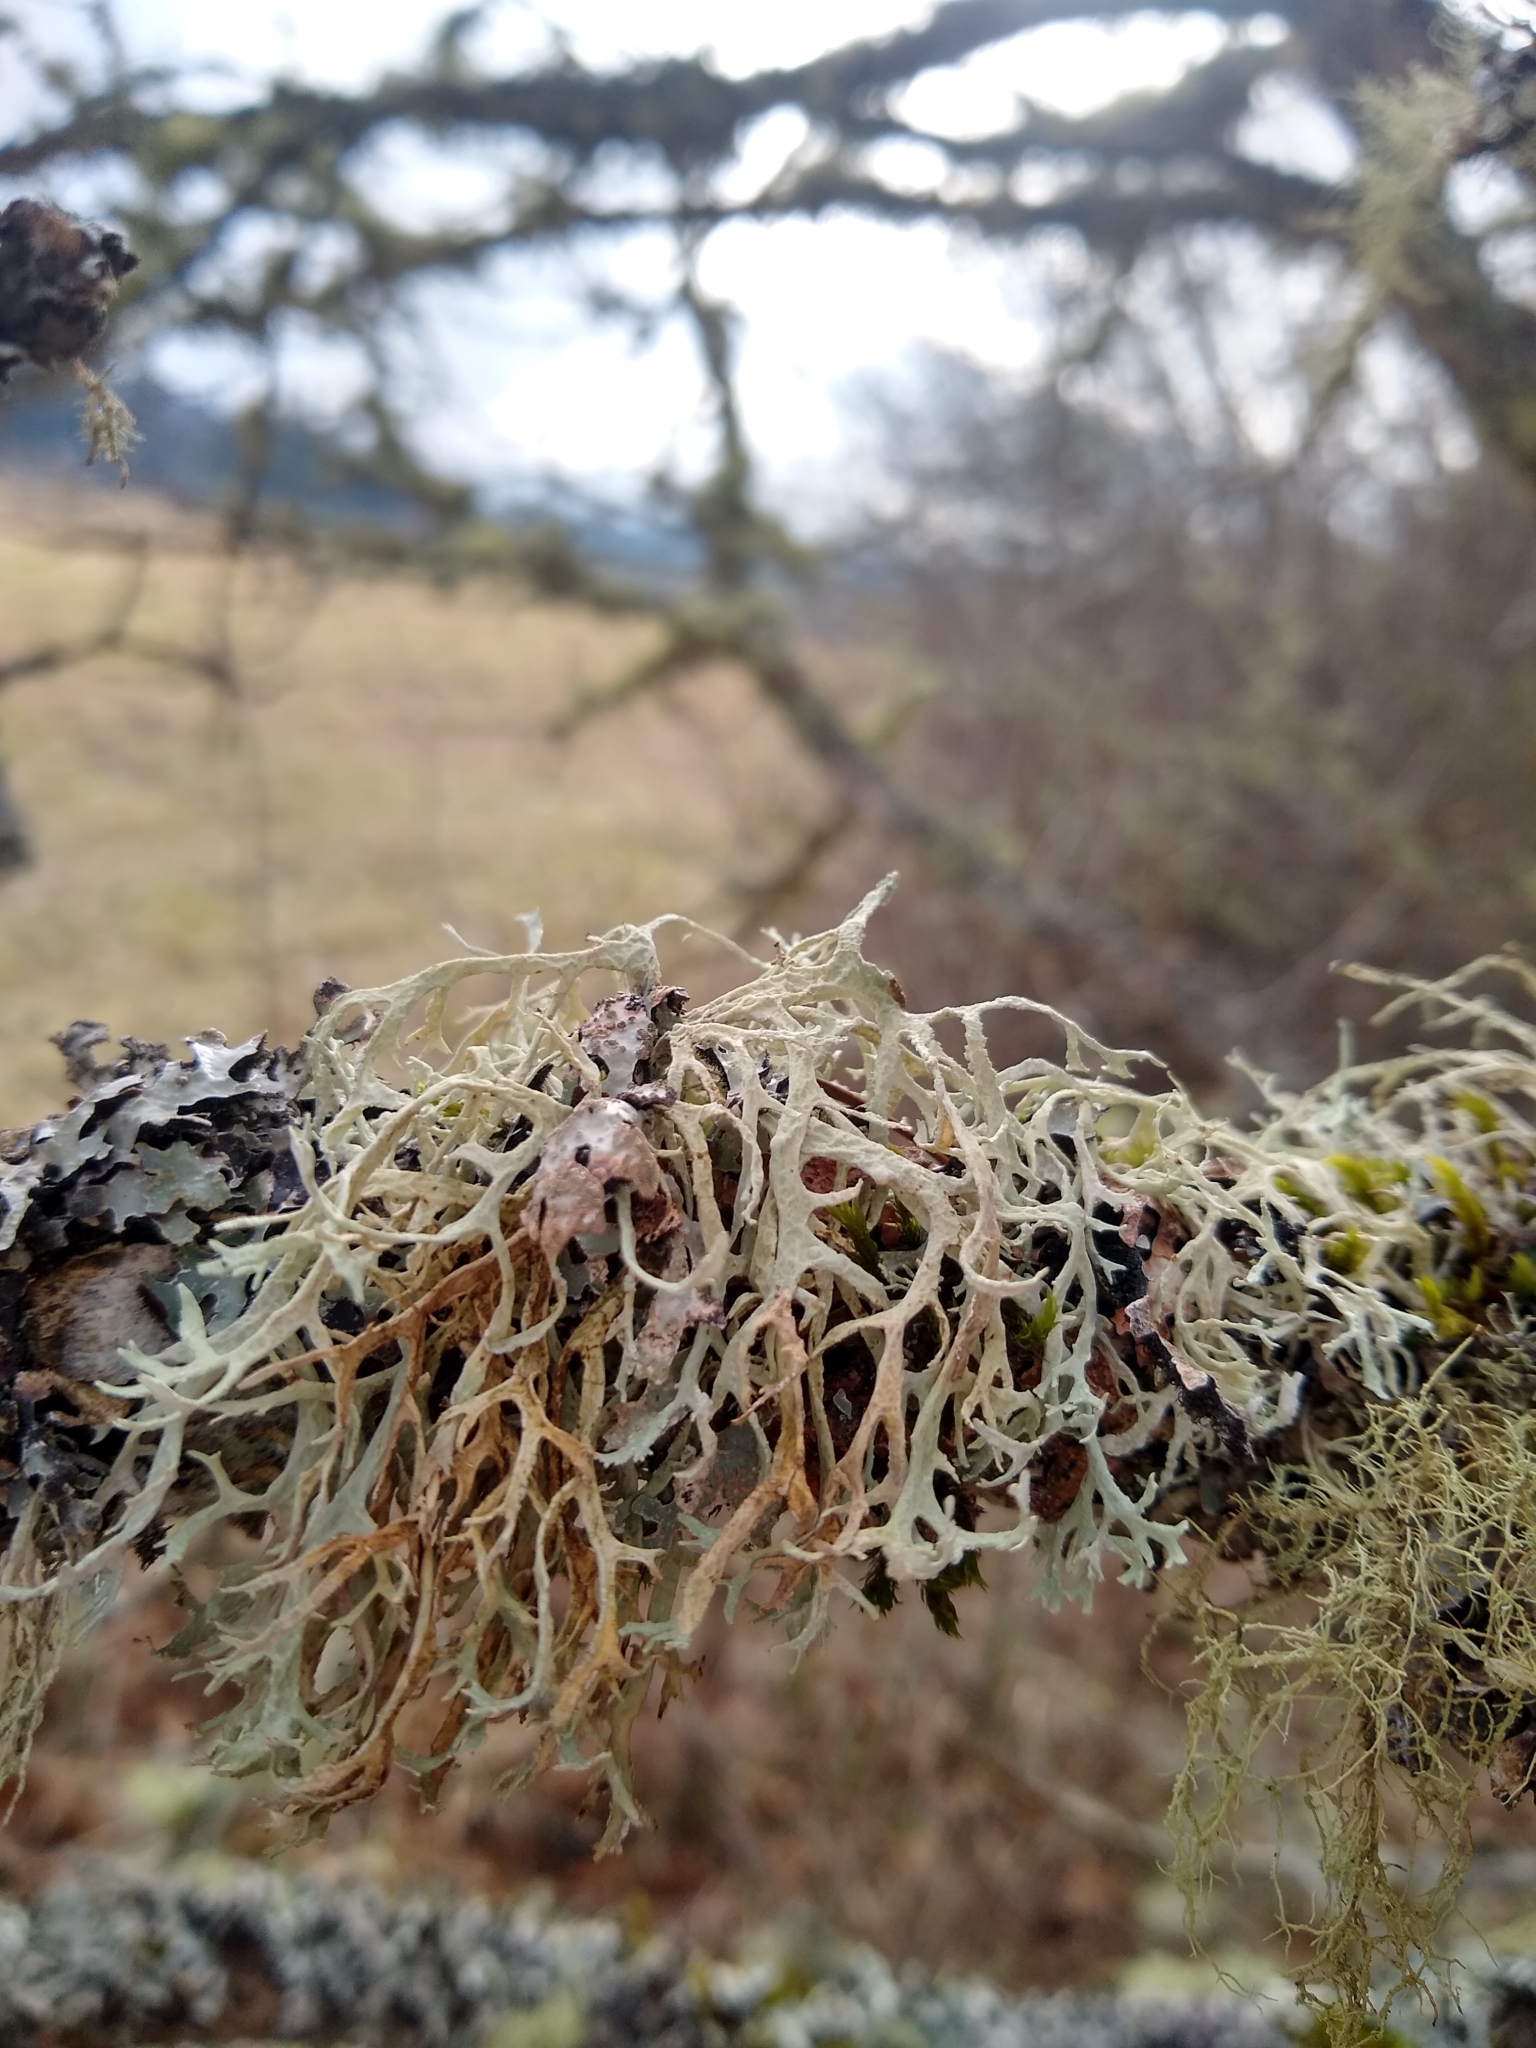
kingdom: Fungi
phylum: Ascomycota
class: Lecanoromycetes
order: Lecanorales
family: Parmeliaceae
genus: Evernia
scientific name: Evernia prunastri
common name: Oak moss
